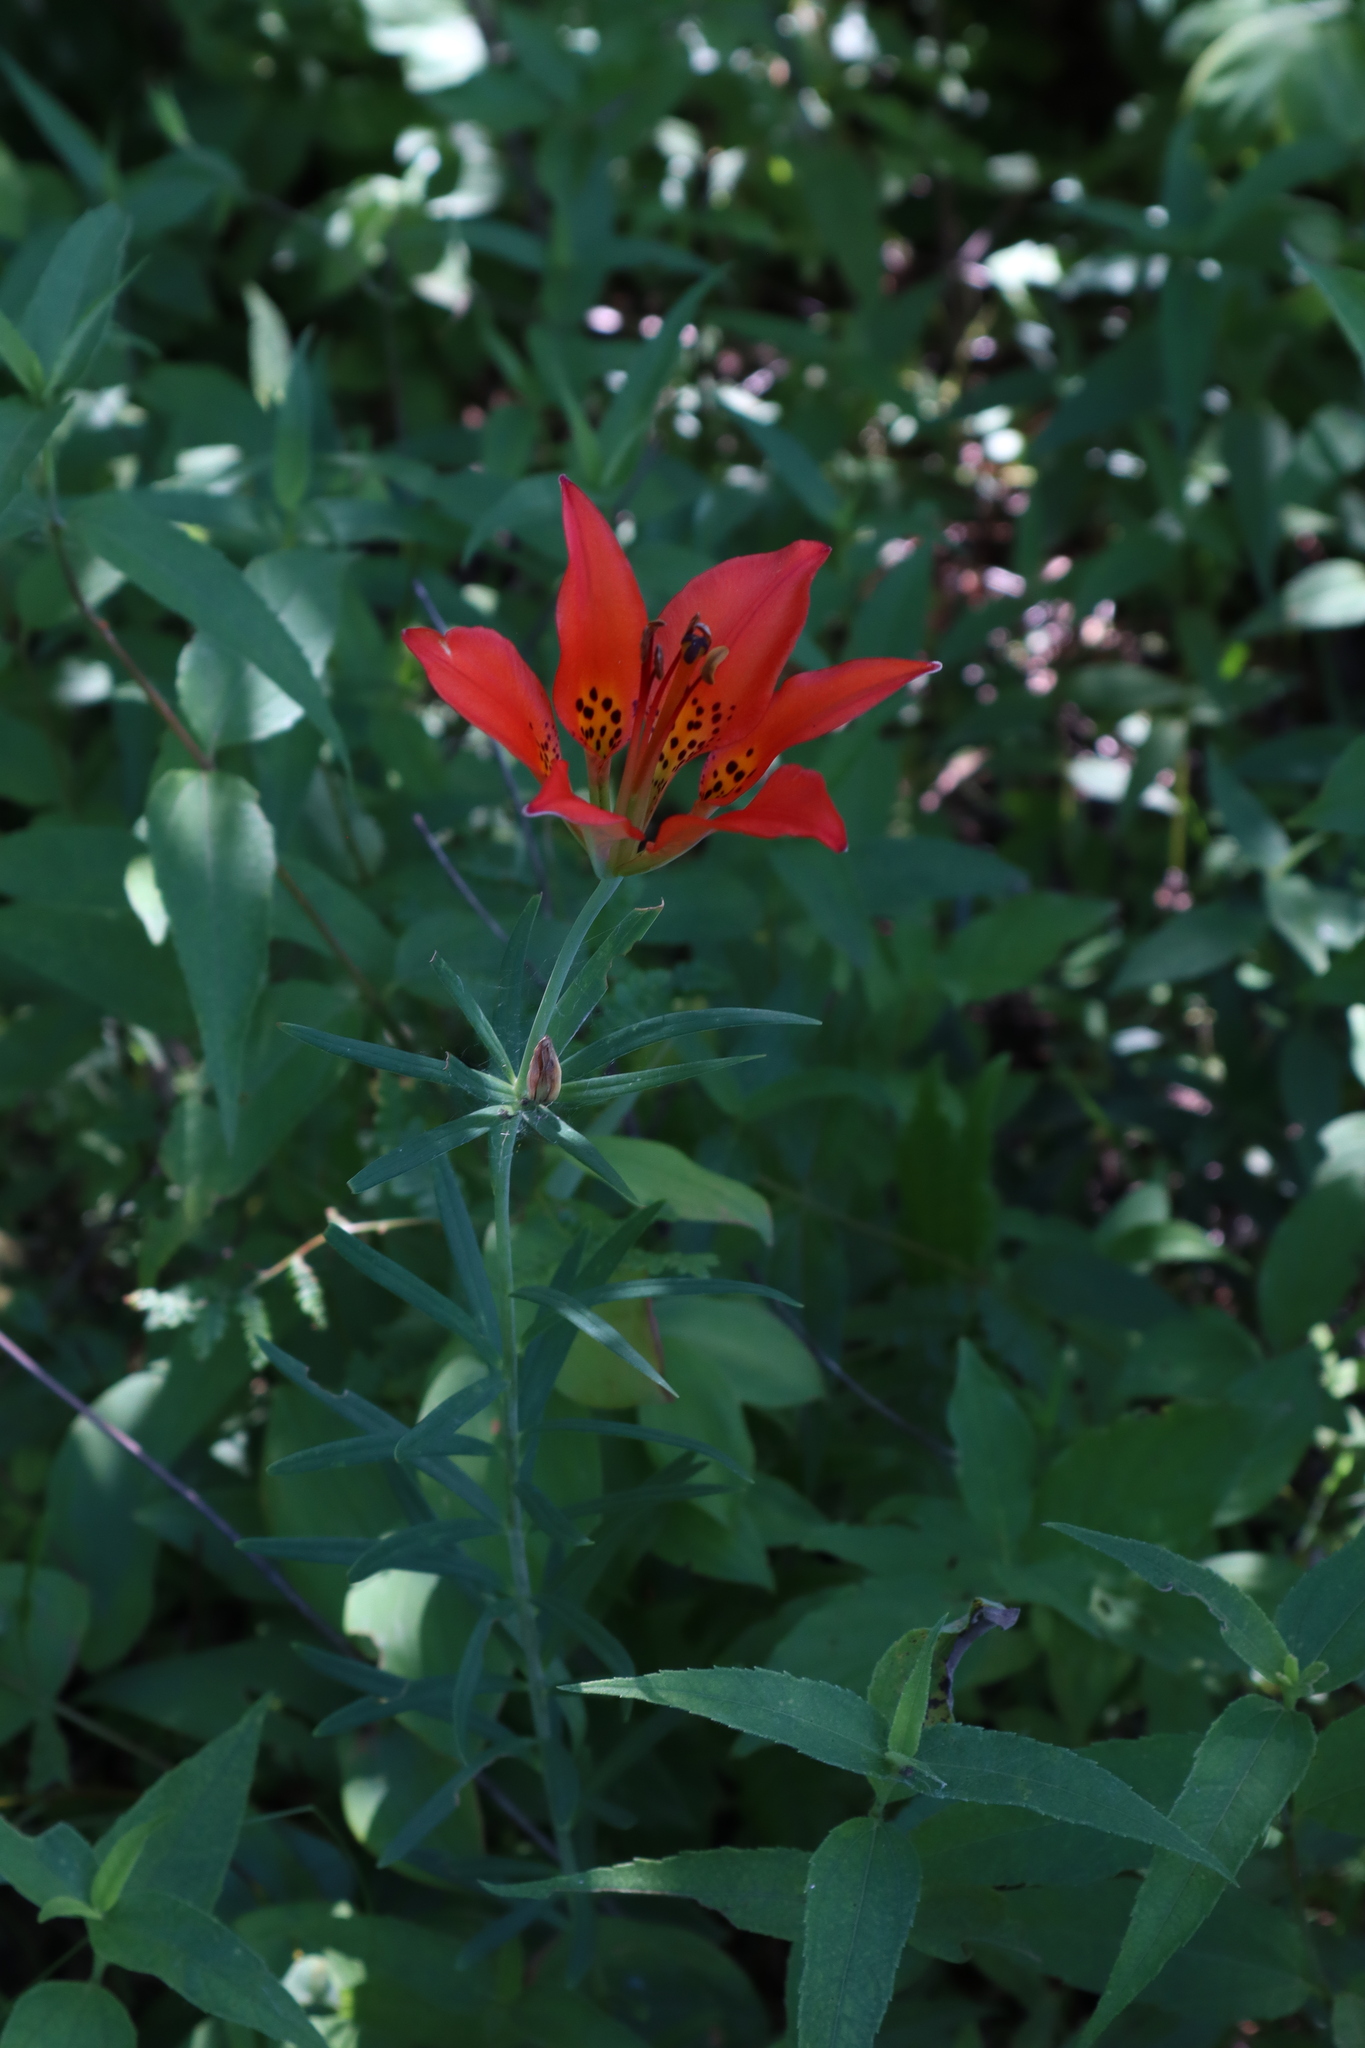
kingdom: Plantae
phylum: Tracheophyta
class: Liliopsida
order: Liliales
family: Liliaceae
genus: Lilium
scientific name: Lilium philadelphicum
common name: Red lily
